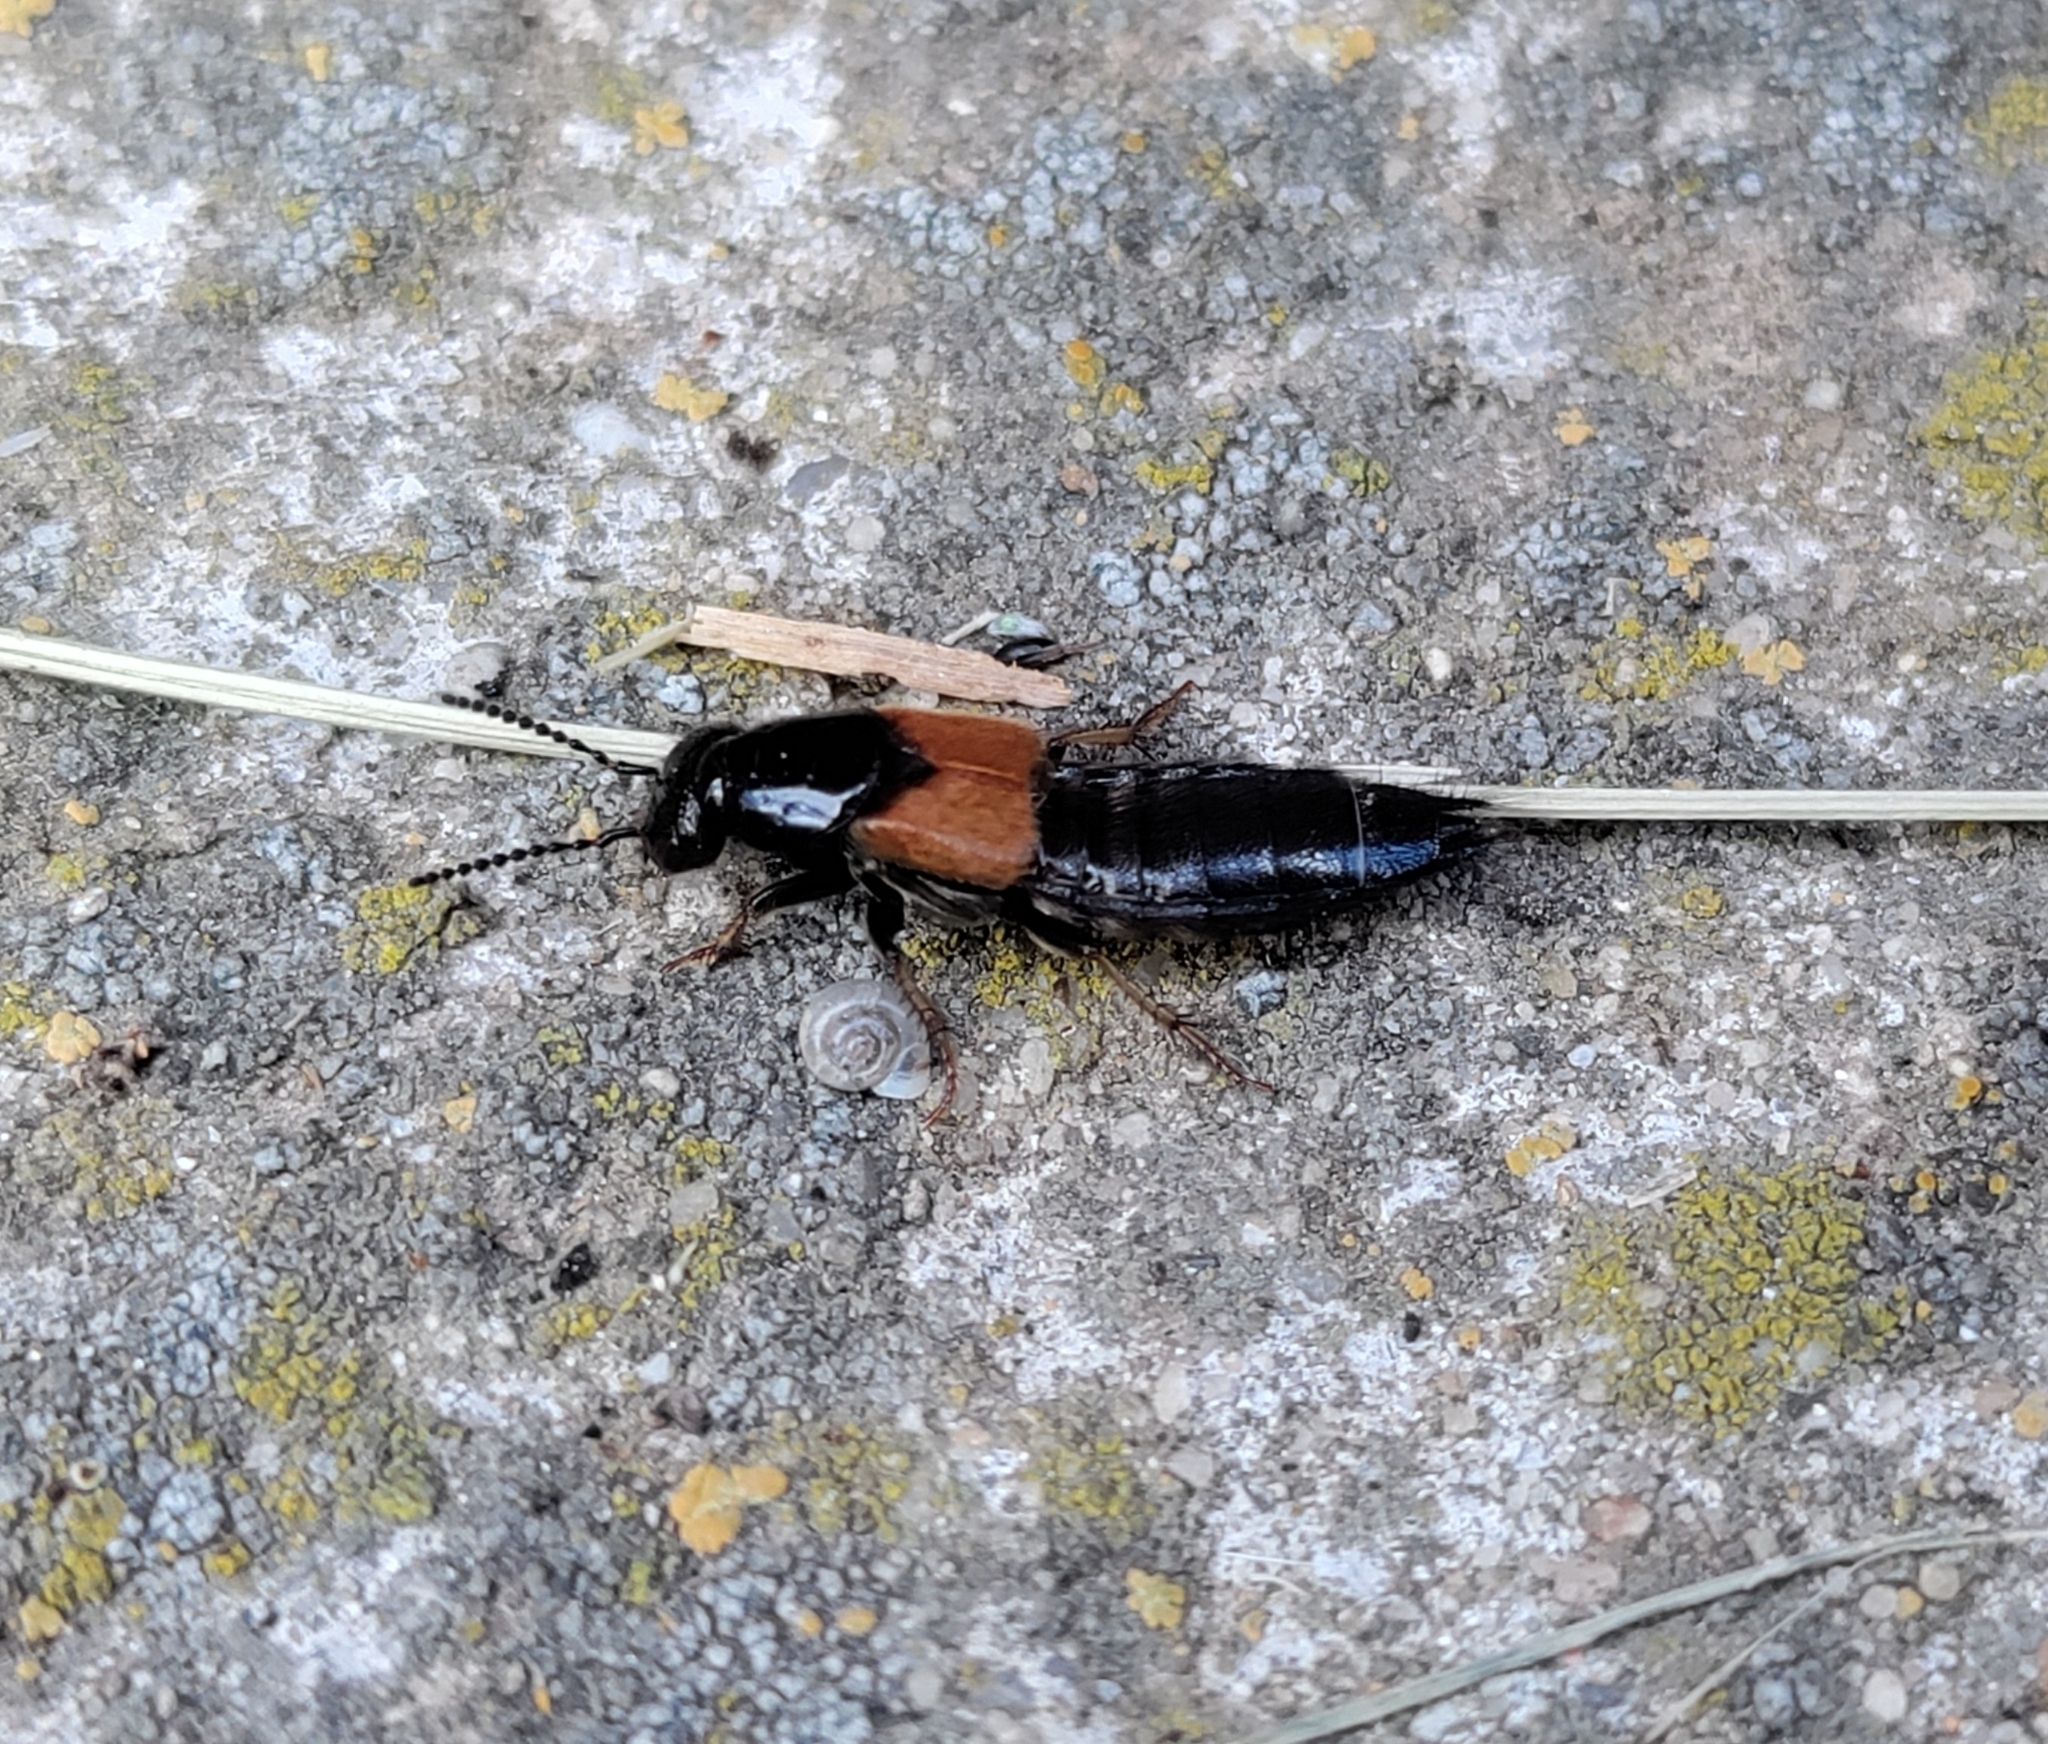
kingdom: Animalia
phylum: Arthropoda
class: Insecta
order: Coleoptera
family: Staphylinidae
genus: Philonthus
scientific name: Philonthus spinipes
